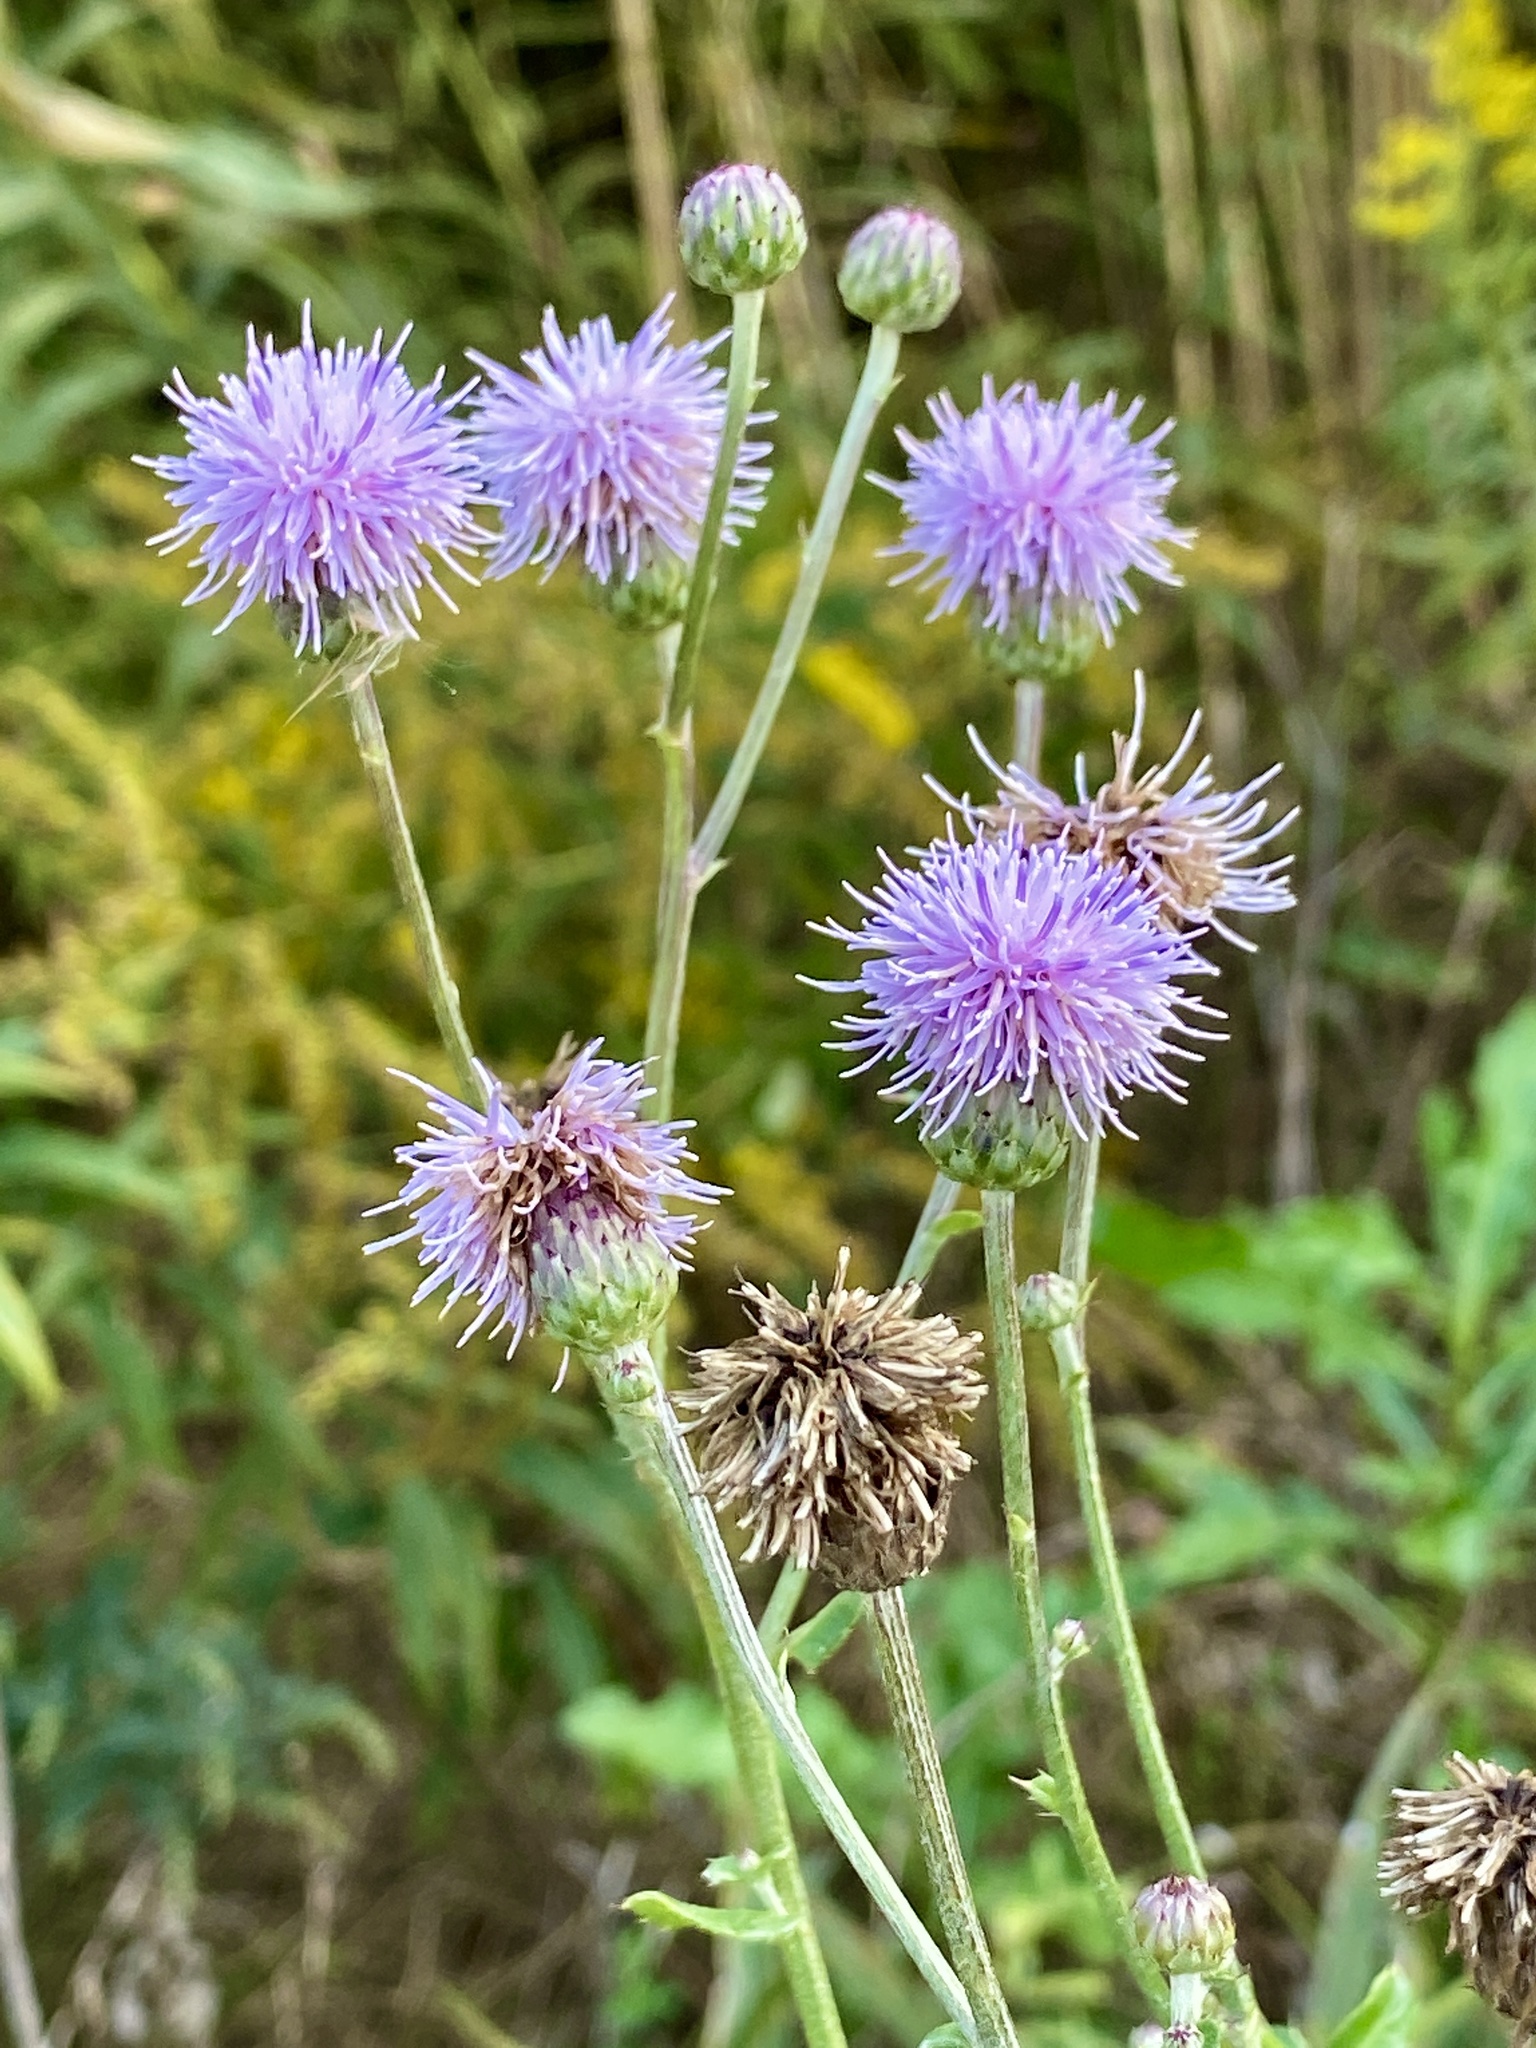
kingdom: Plantae
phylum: Tracheophyta
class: Magnoliopsida
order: Asterales
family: Asteraceae
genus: Cirsium
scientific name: Cirsium arvense
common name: Creeping thistle
